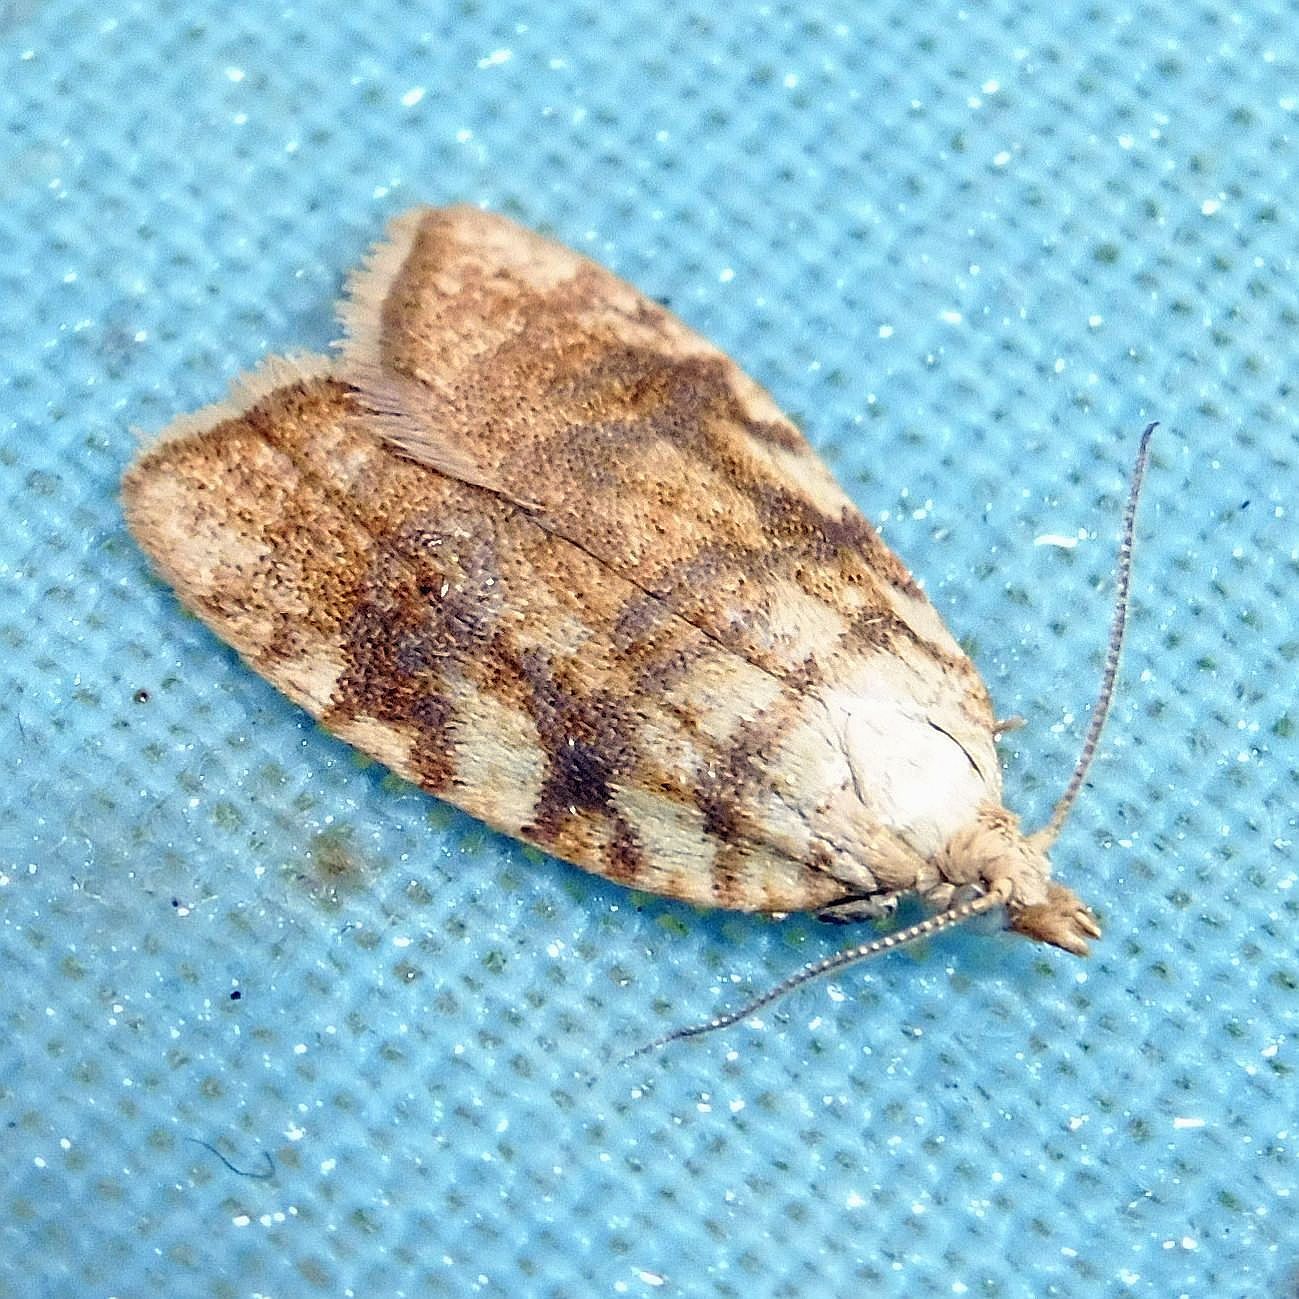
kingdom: Animalia
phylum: Arthropoda
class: Insecta
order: Lepidoptera
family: Tortricidae
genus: Aleimma
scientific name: Aleimma loeflingiana
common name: Yellow oak button
